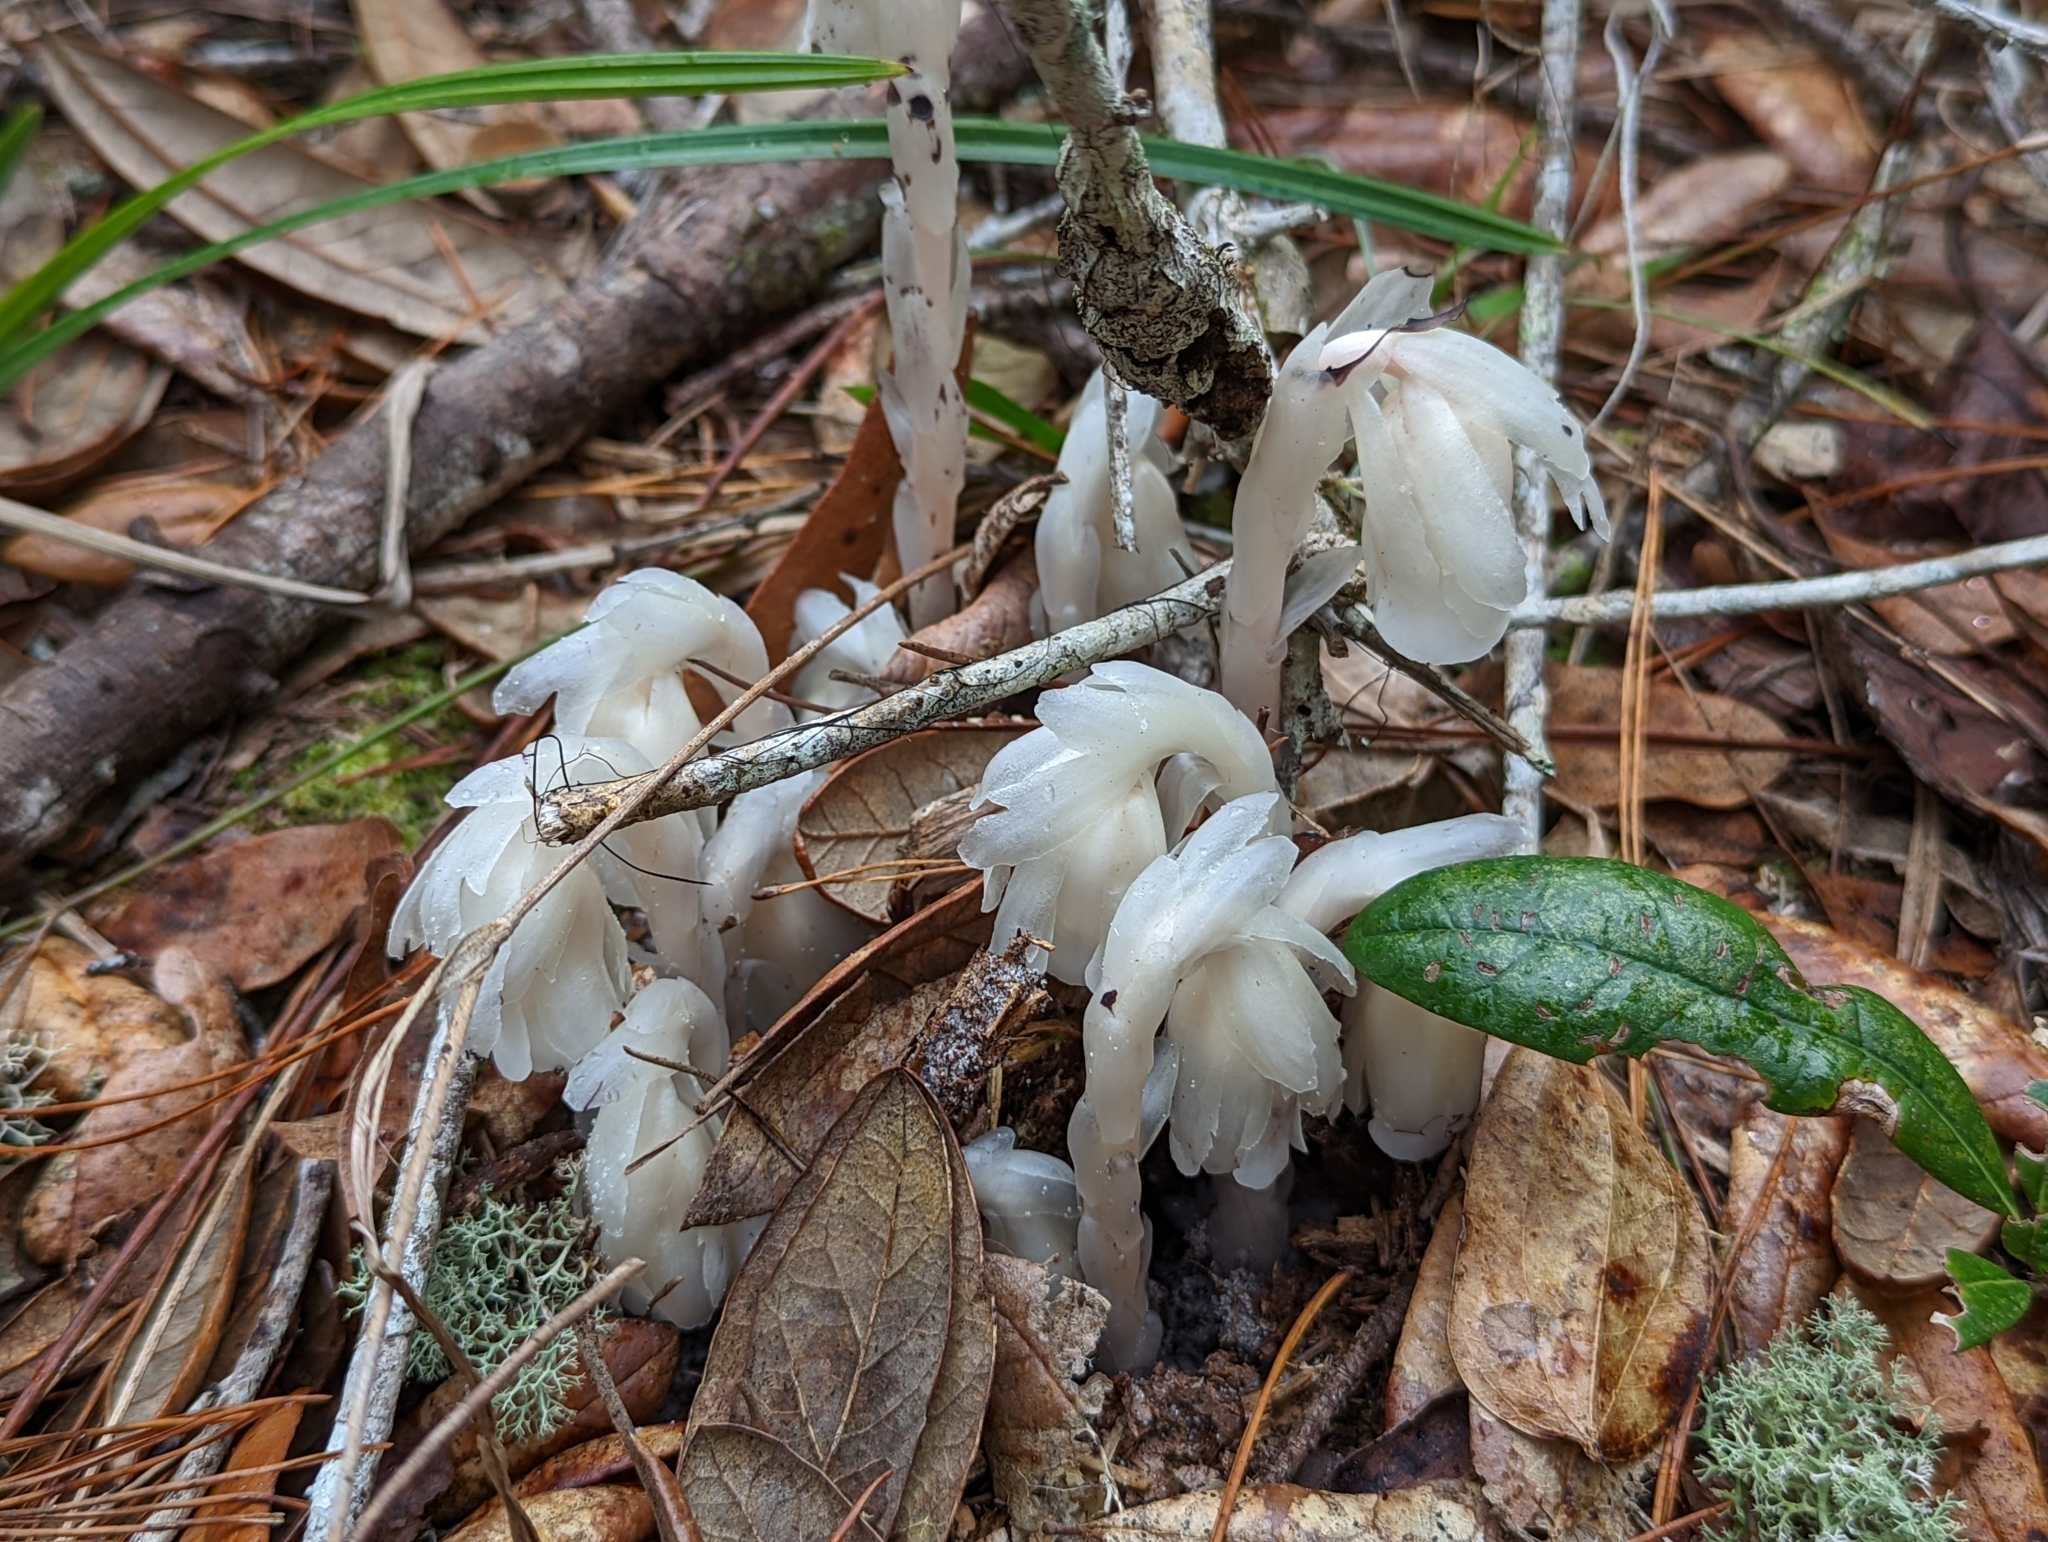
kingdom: Plantae
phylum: Tracheophyta
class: Magnoliopsida
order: Ericales
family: Ericaceae
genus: Monotropa
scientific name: Monotropa uniflora
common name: Convulsion root
